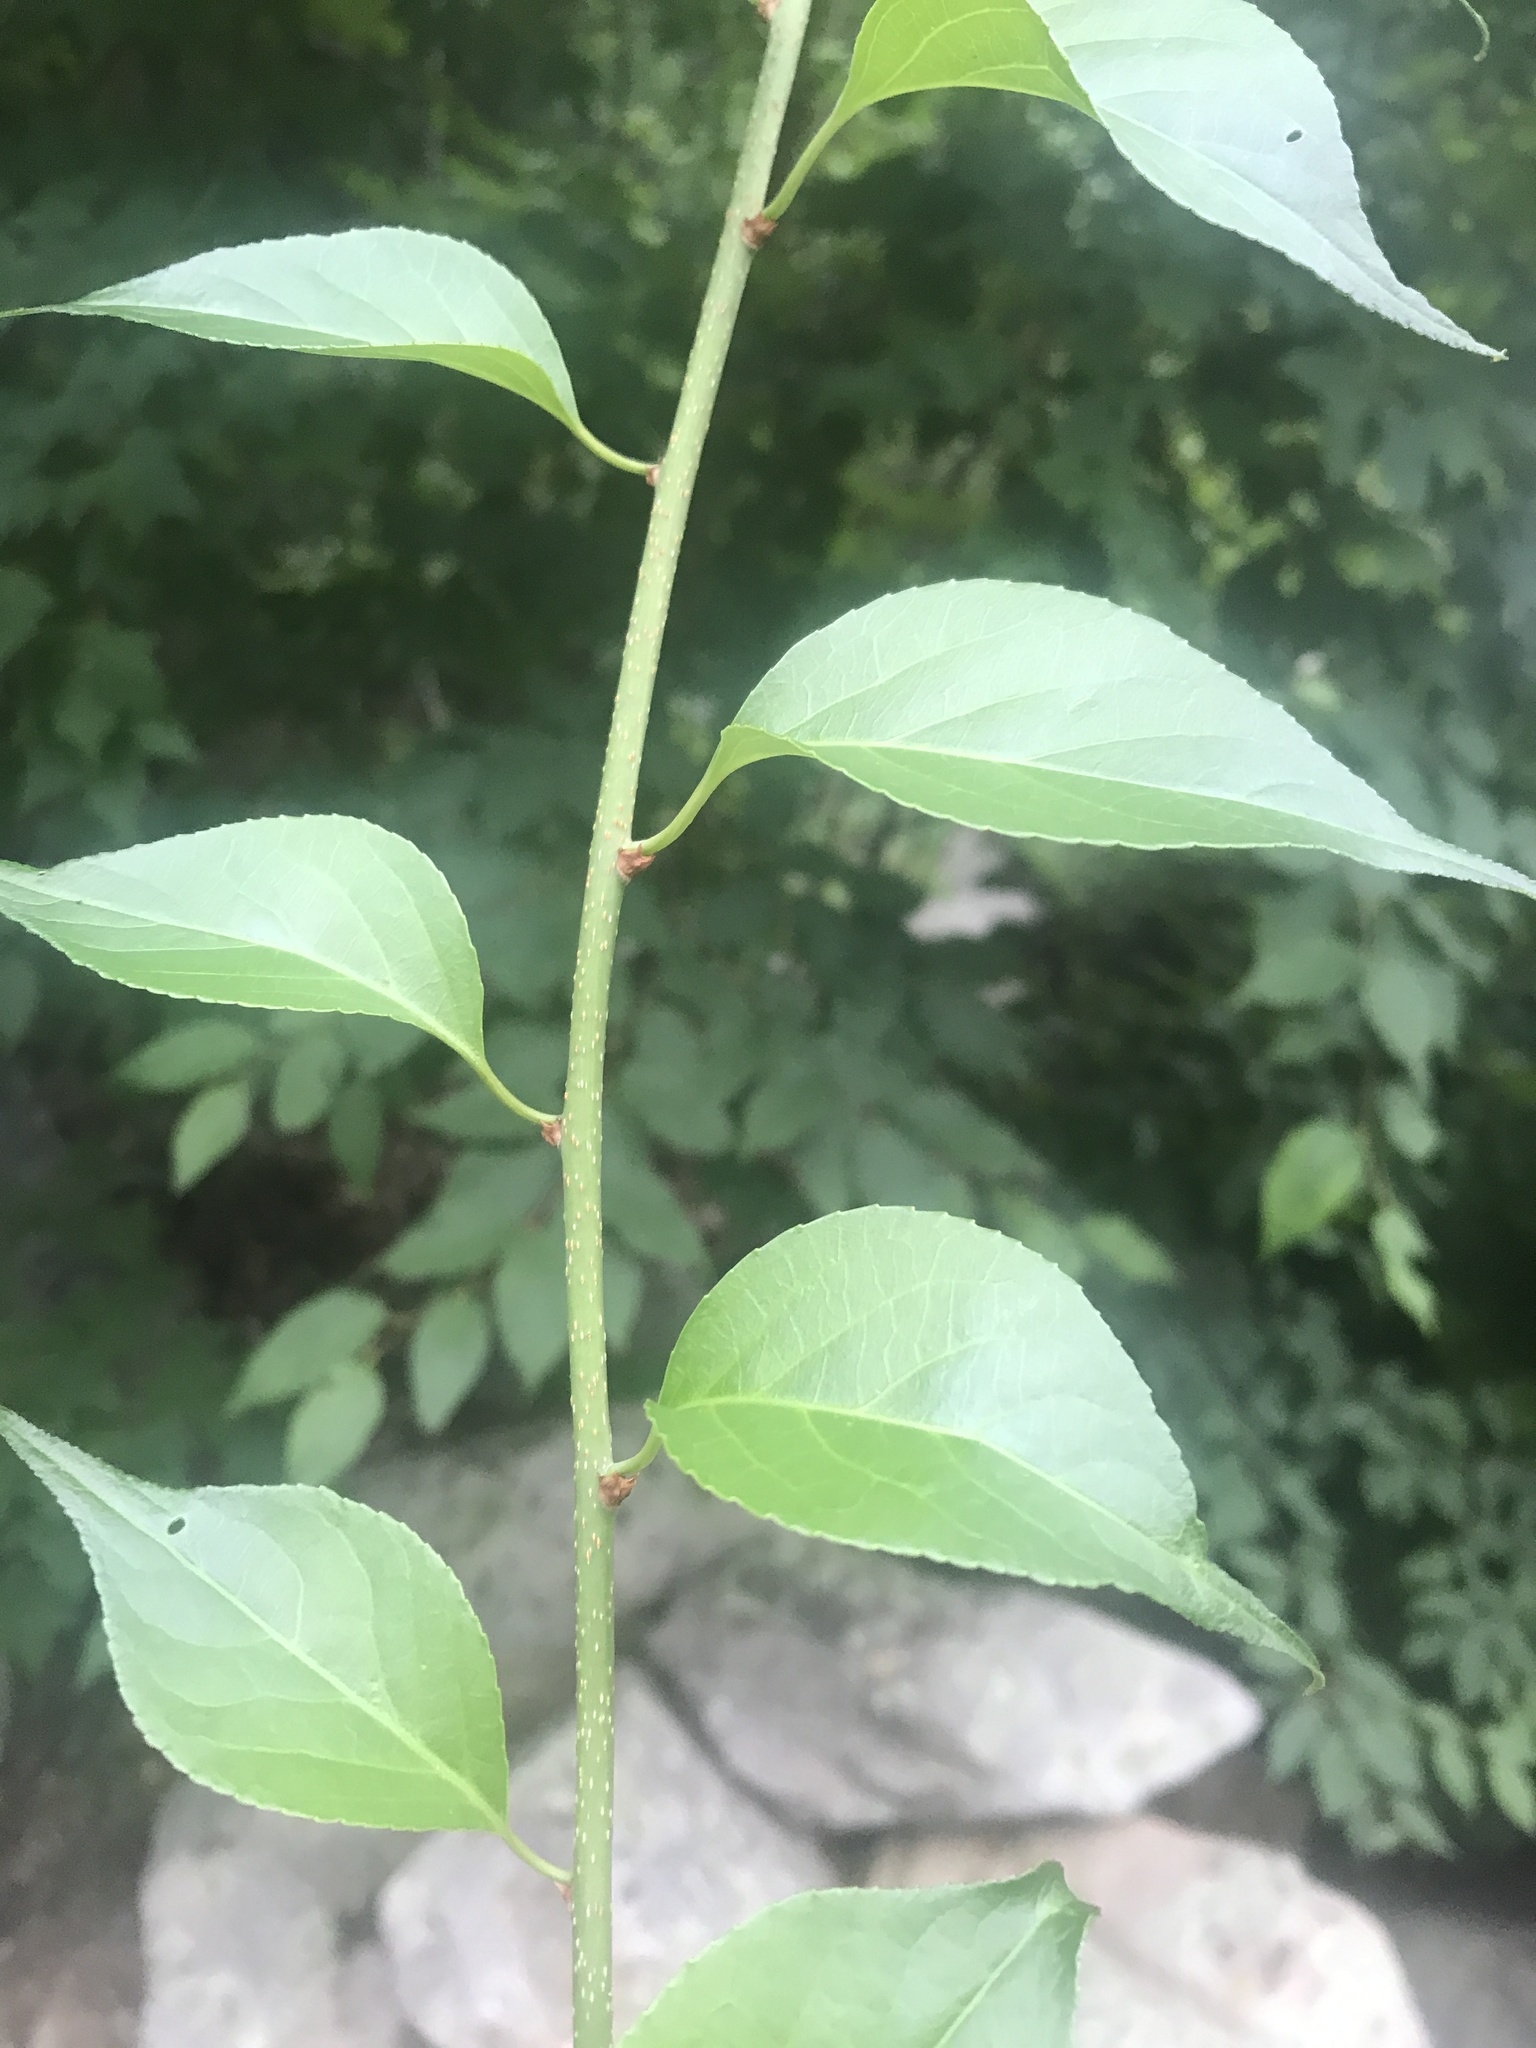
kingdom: Plantae
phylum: Tracheophyta
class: Magnoliopsida
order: Celastrales
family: Celastraceae
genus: Celastrus
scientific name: Celastrus orbiculatus
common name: Oriental bittersweet
